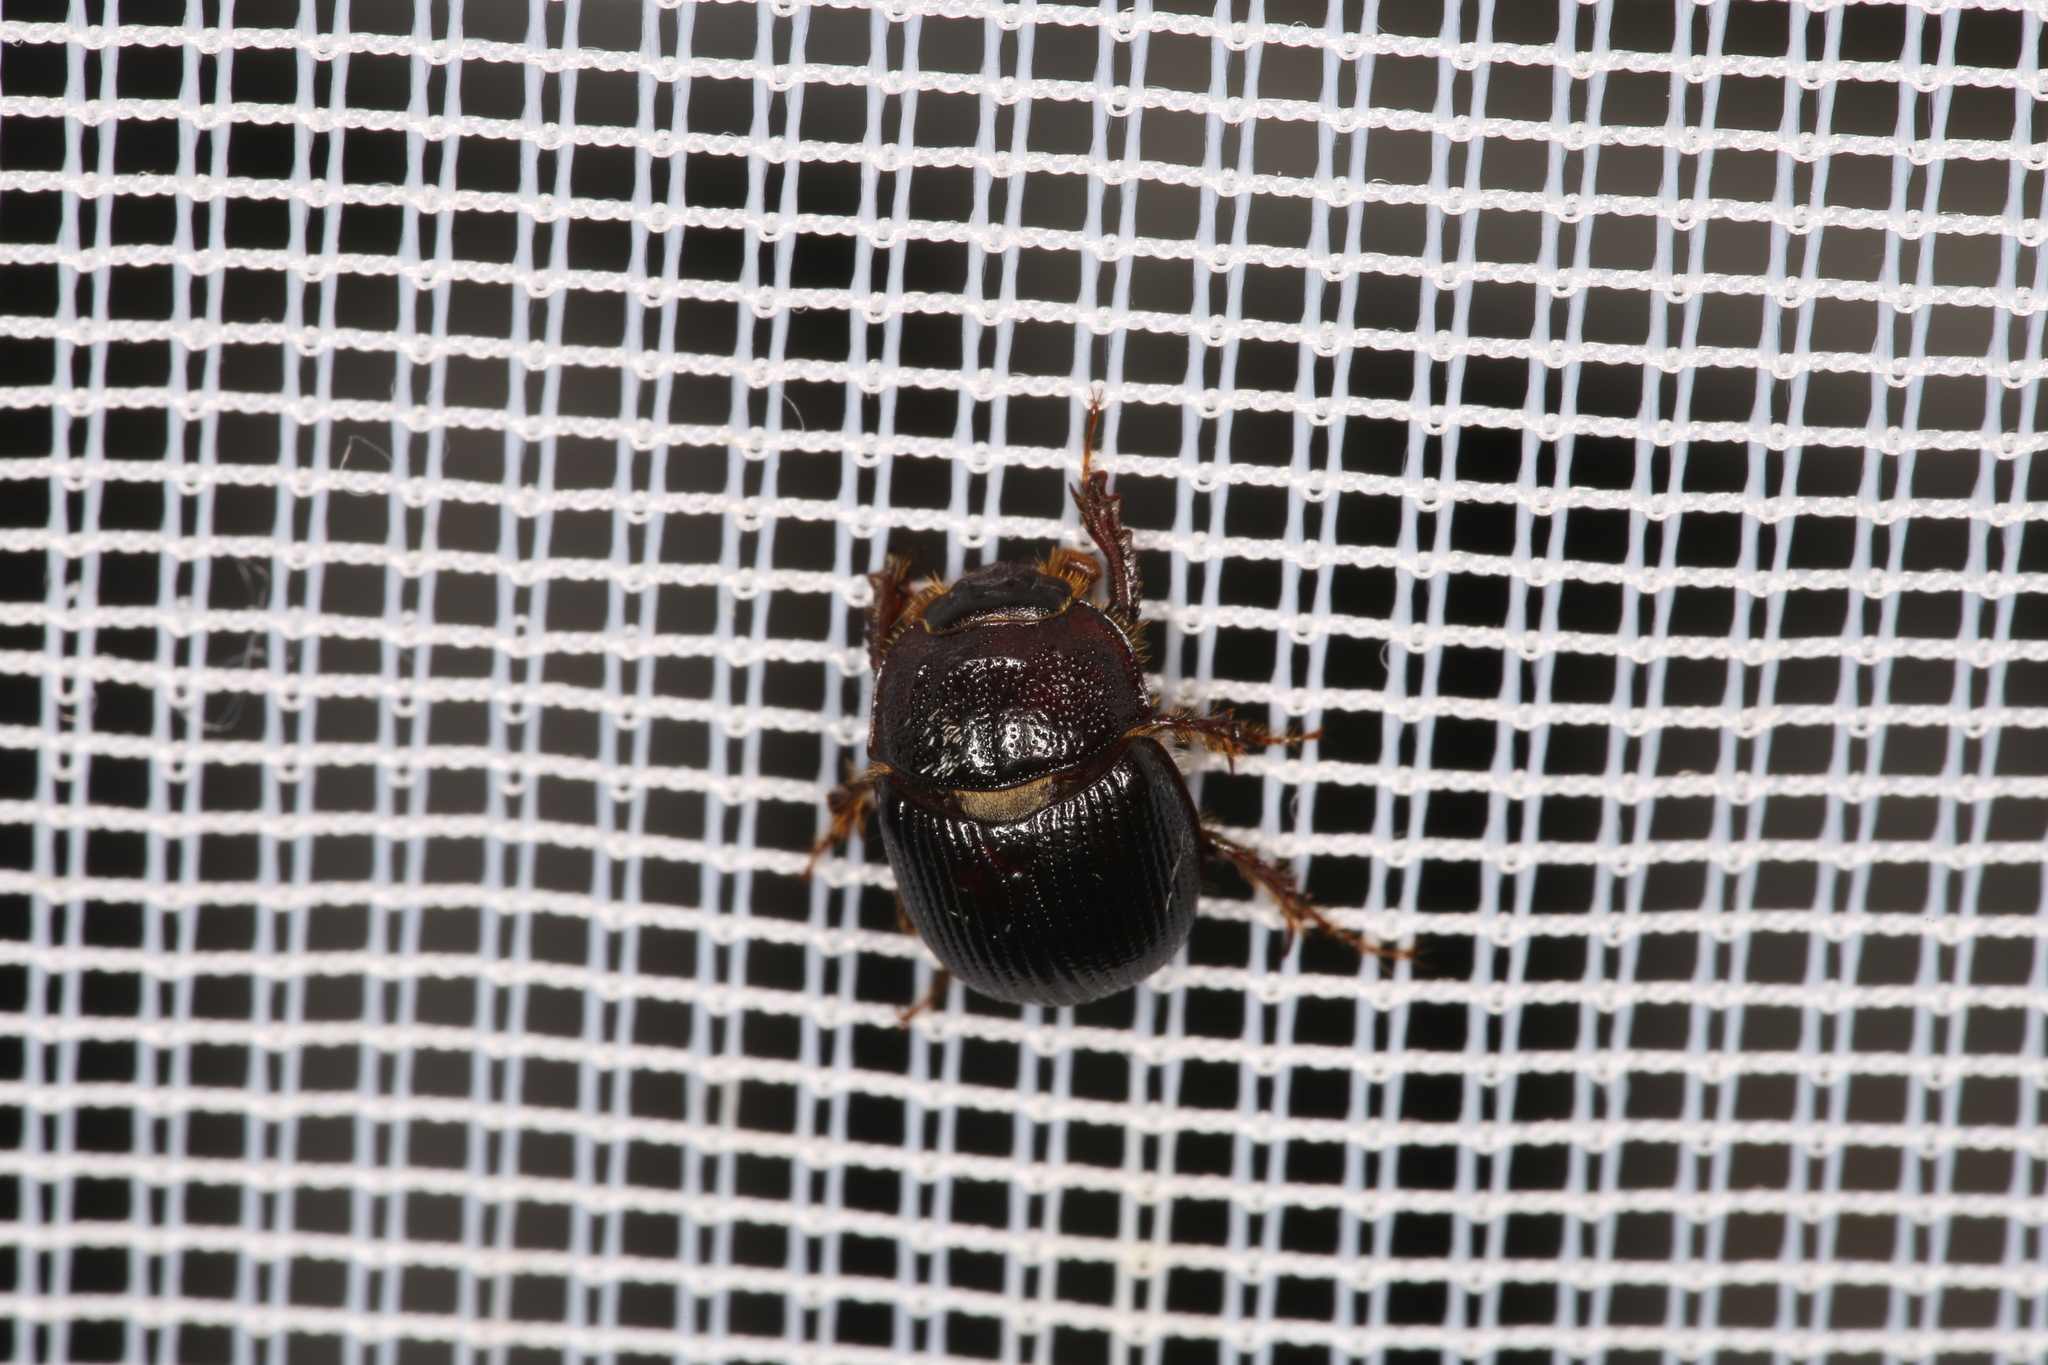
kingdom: Animalia
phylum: Arthropoda
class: Insecta
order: Coleoptera
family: Geotrupidae
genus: Odonteus
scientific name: Odonteus armiger
